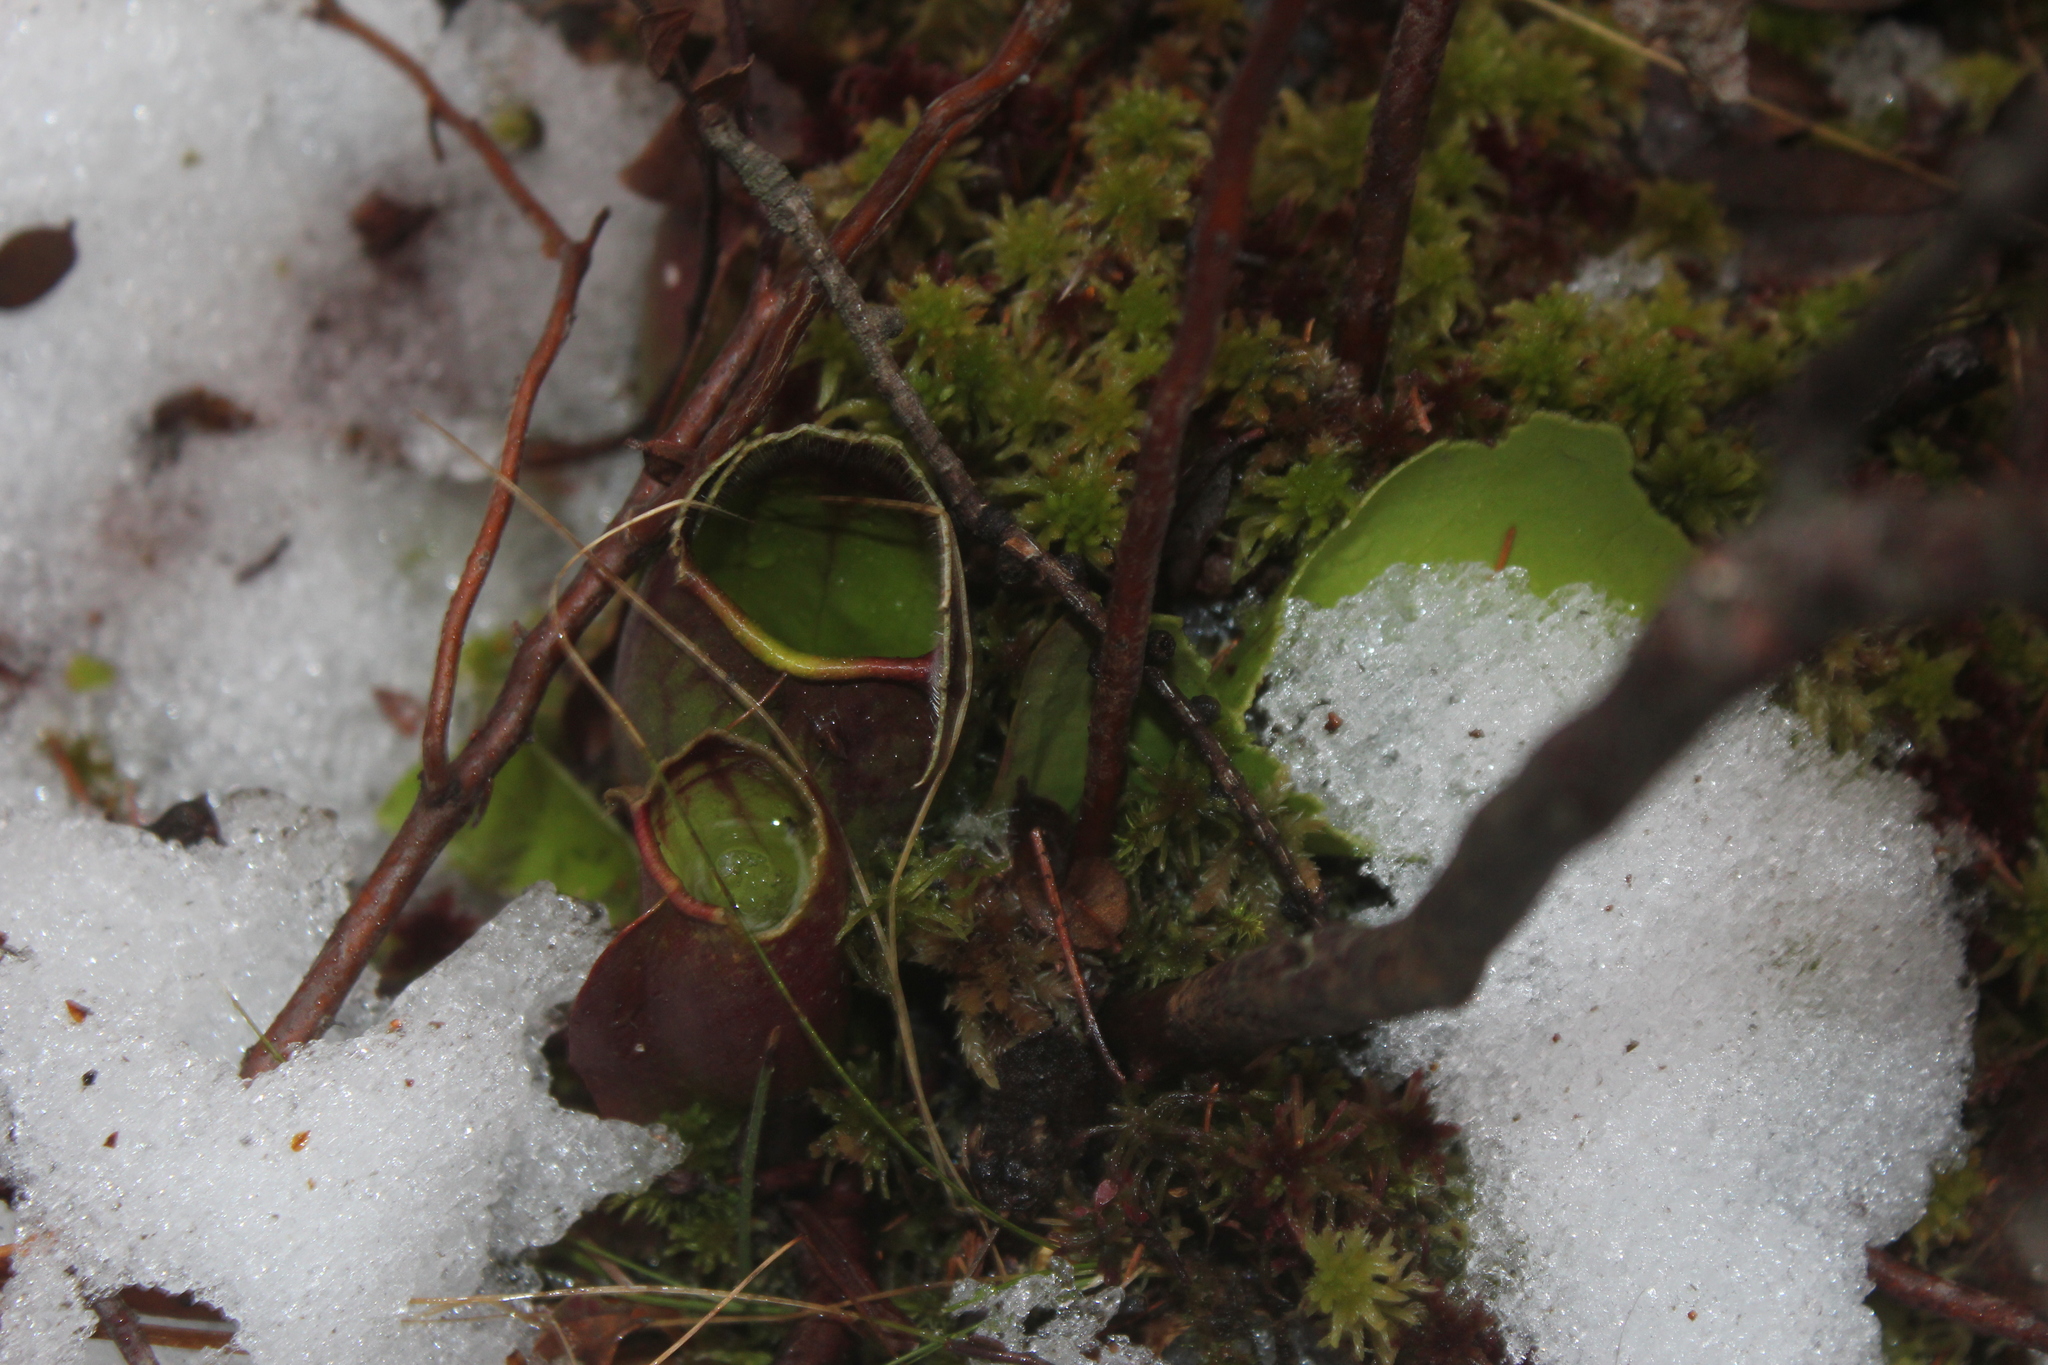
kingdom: Plantae
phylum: Tracheophyta
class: Magnoliopsida
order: Ericales
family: Sarraceniaceae
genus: Sarracenia
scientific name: Sarracenia purpurea
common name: Pitcherplant
